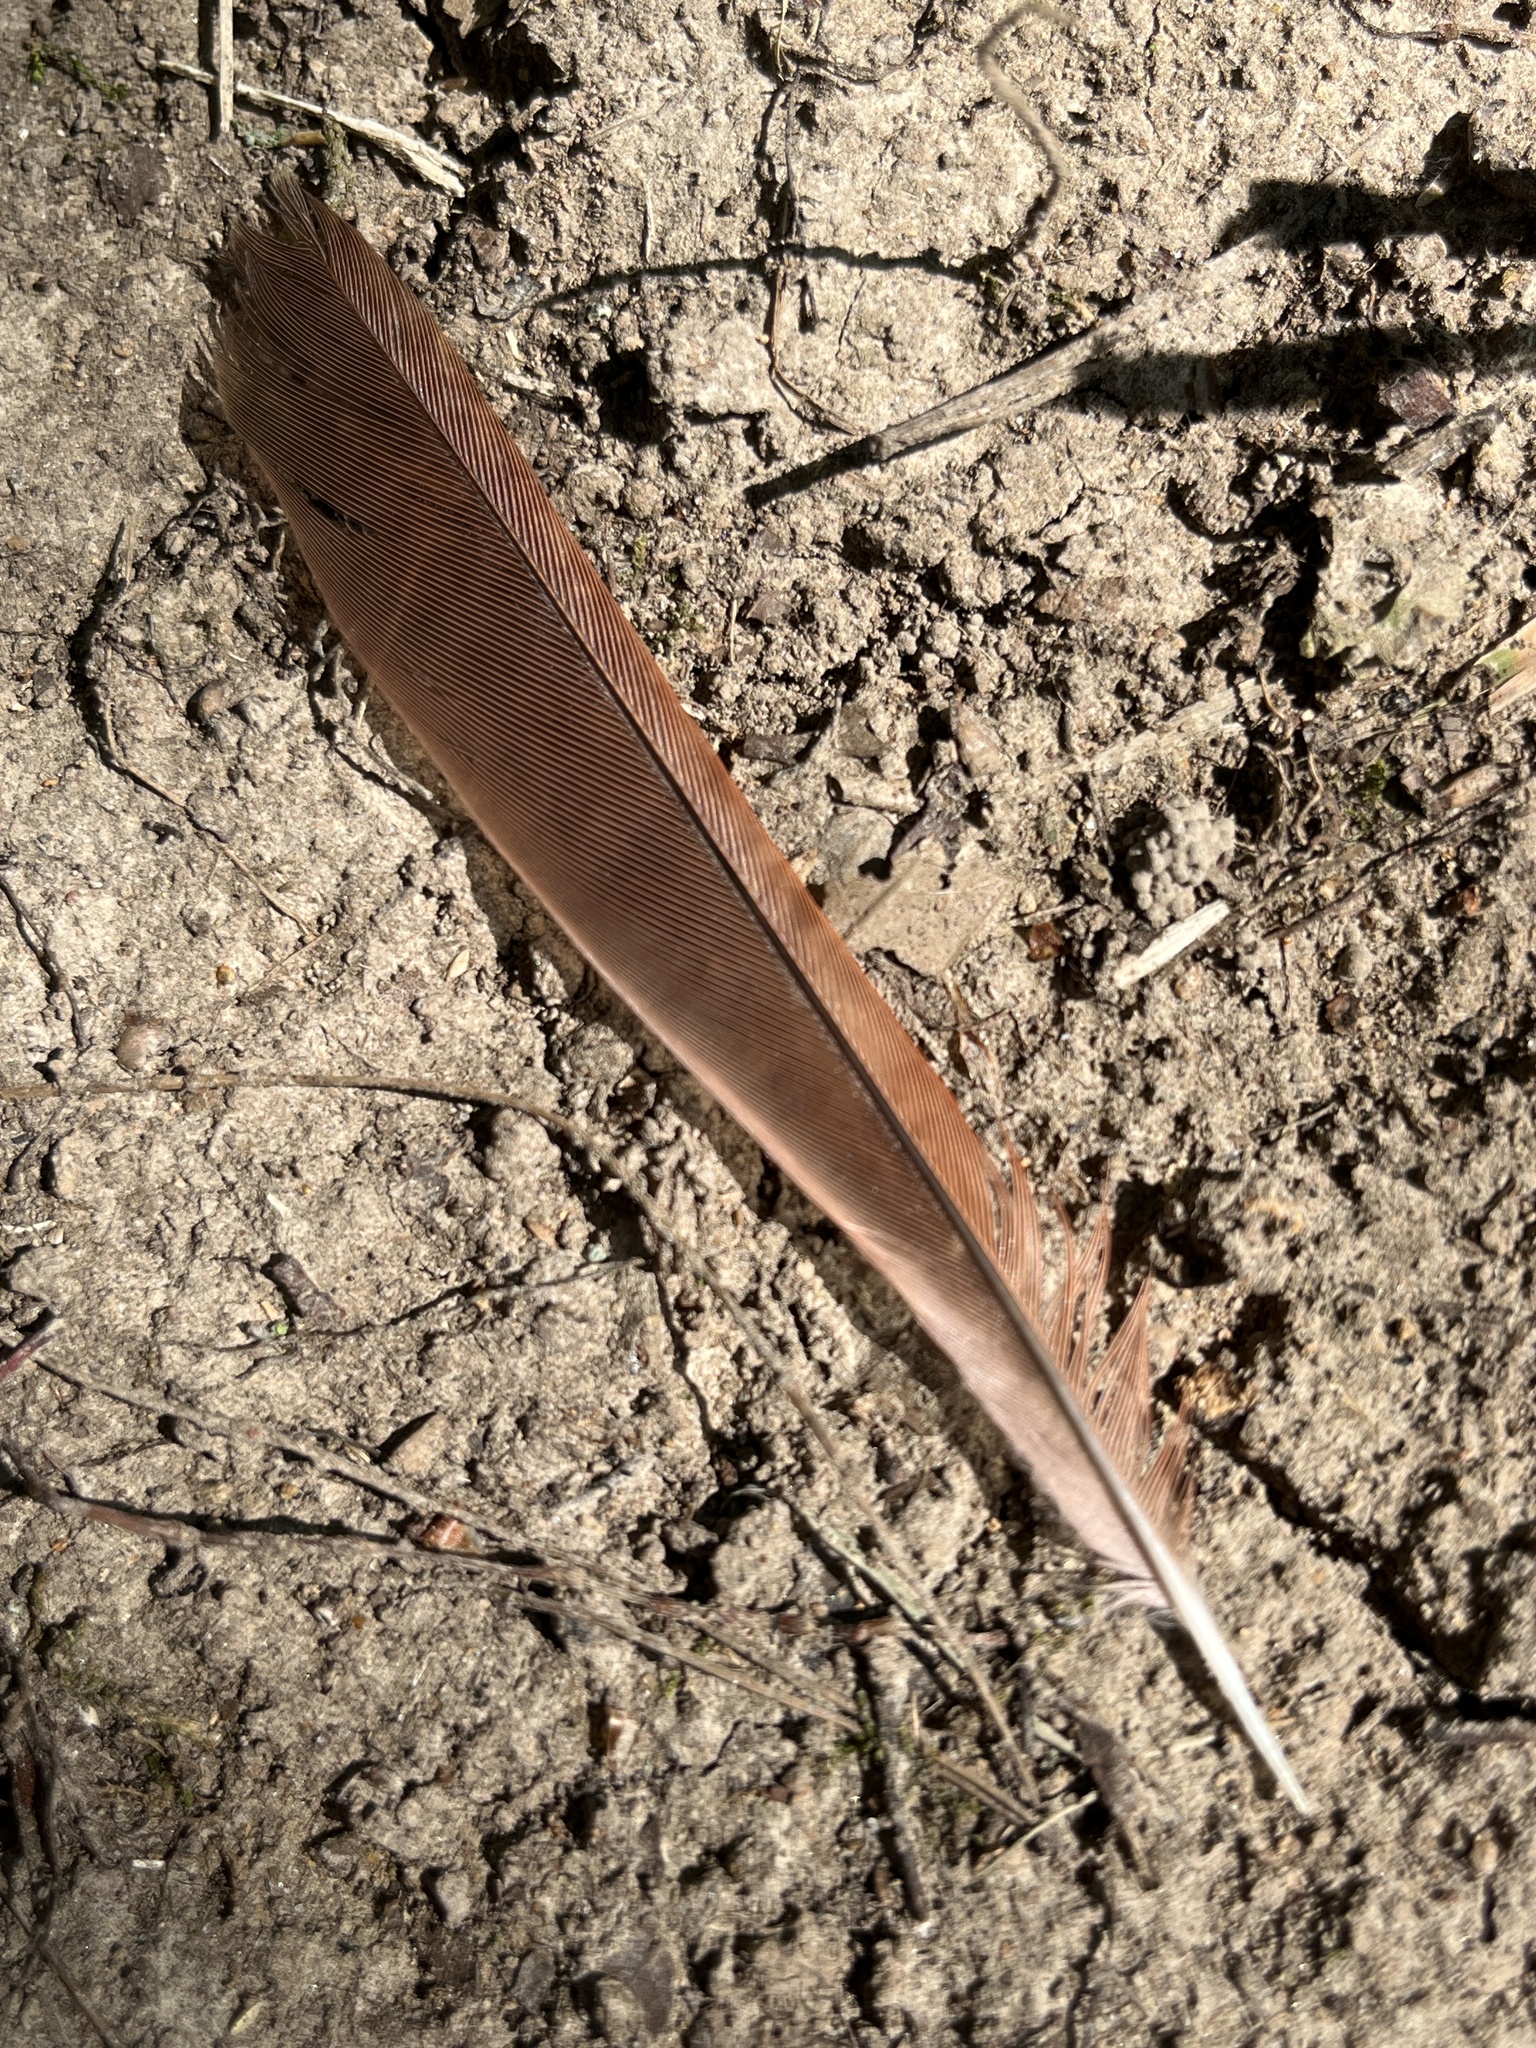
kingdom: Animalia
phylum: Chordata
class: Aves
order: Passeriformes
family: Cardinalidae
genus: Cardinalis
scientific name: Cardinalis cardinalis
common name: Northern cardinal
